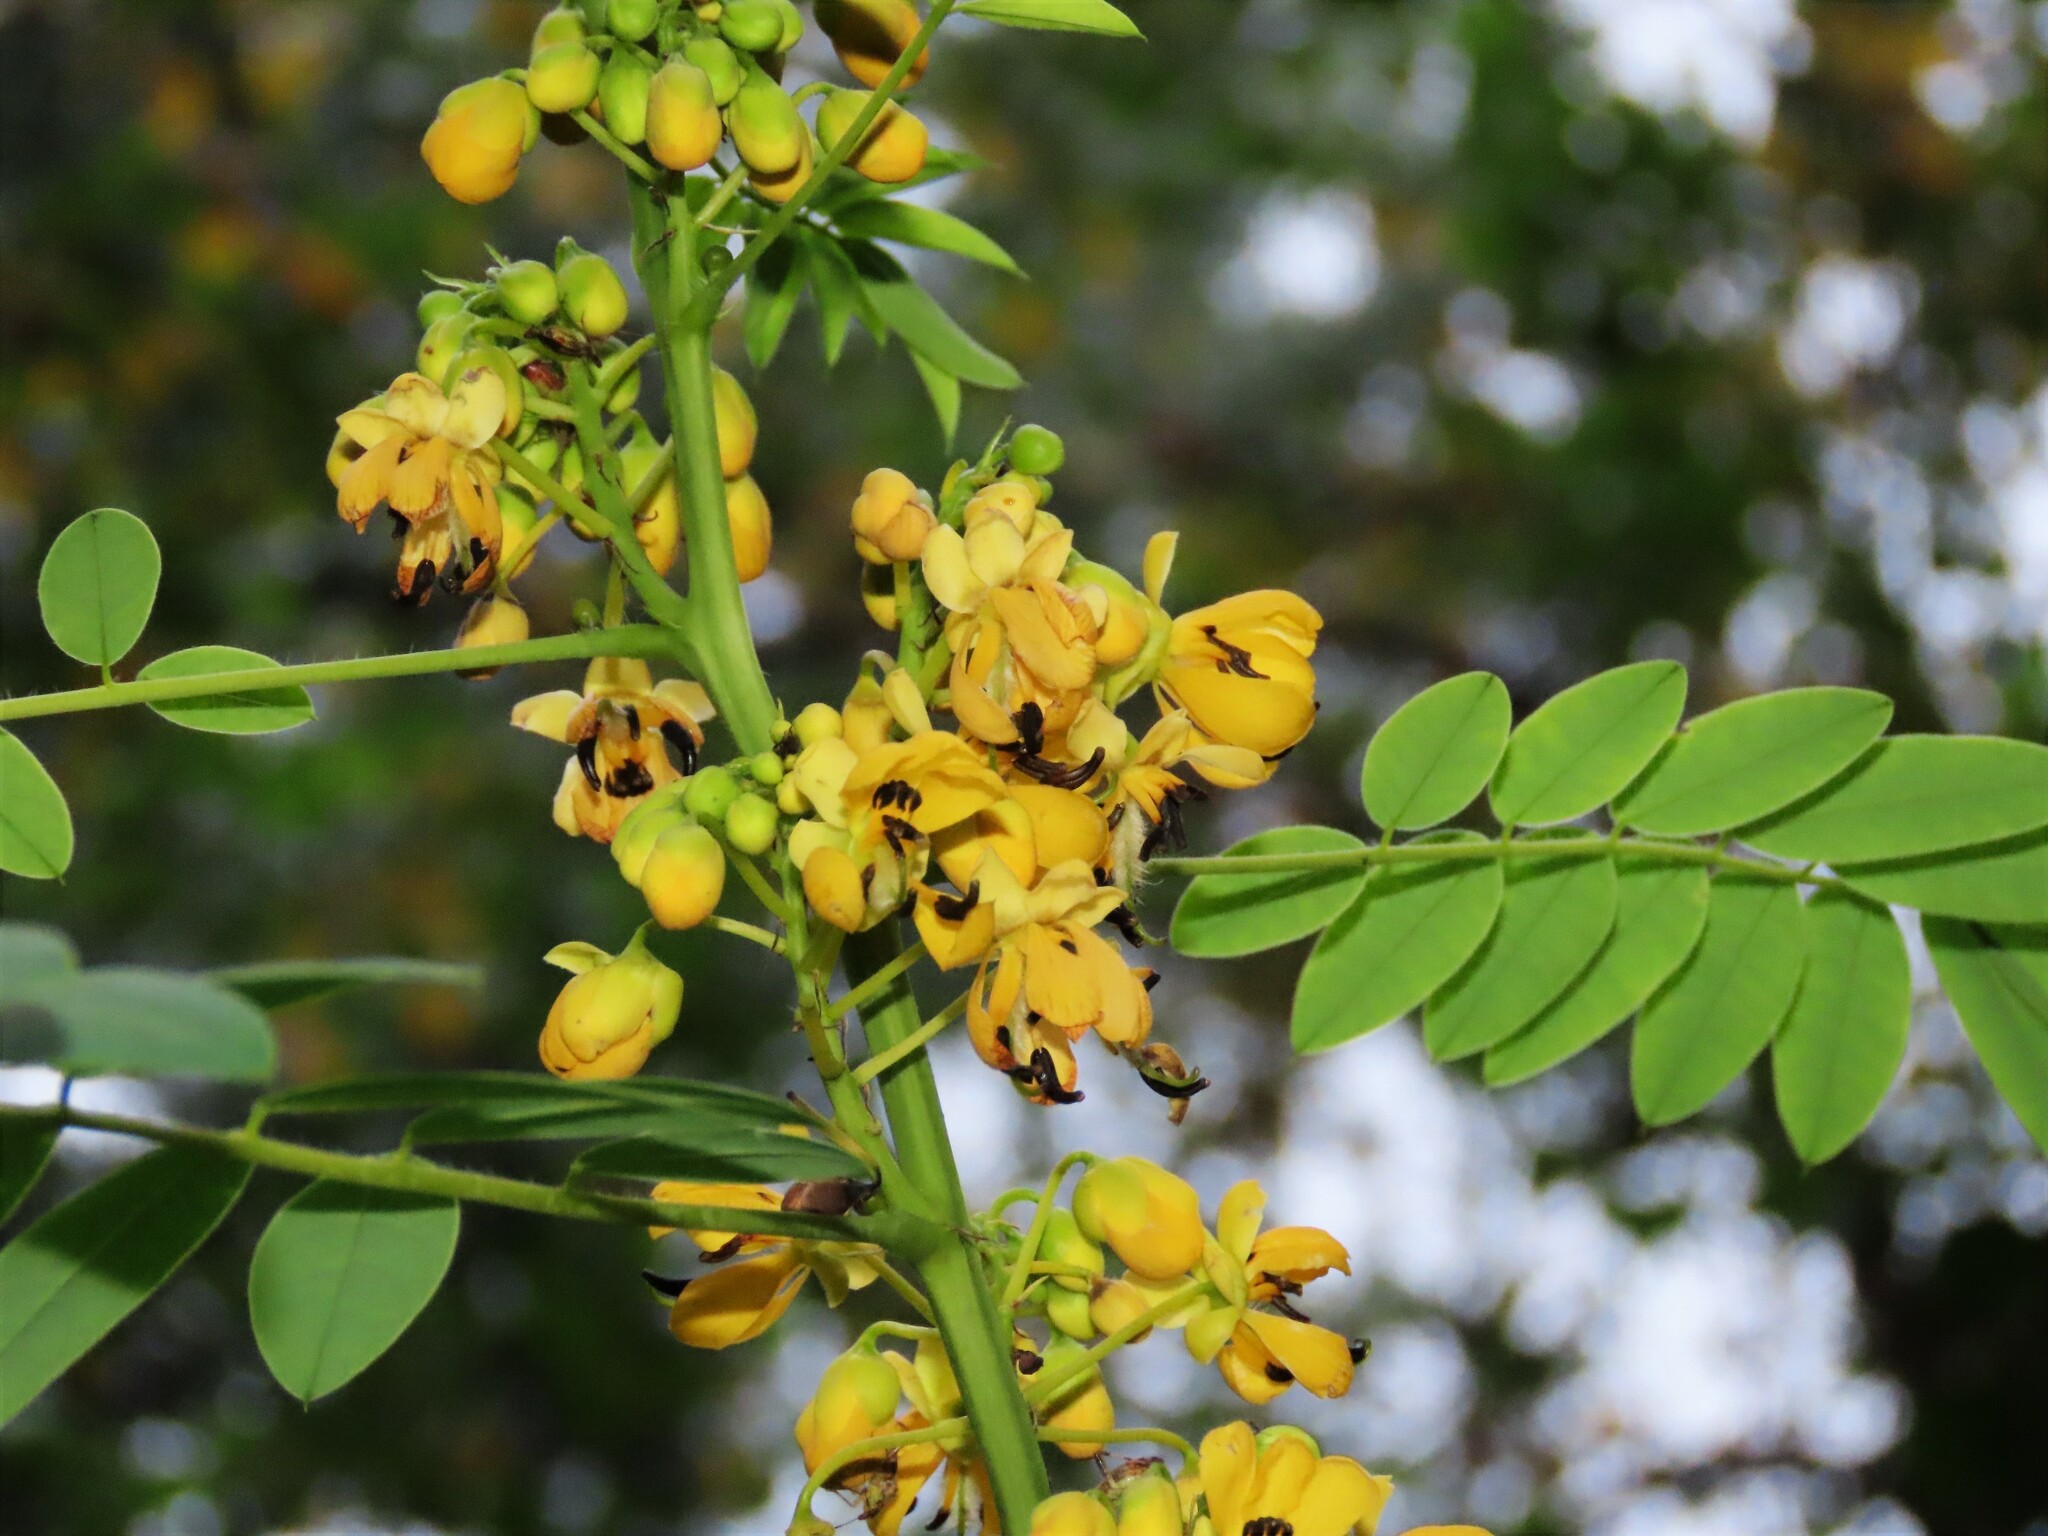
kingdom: Plantae
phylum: Tracheophyta
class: Magnoliopsida
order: Fabales
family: Fabaceae
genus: Senna
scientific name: Senna hebecarpa
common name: Wild senna
